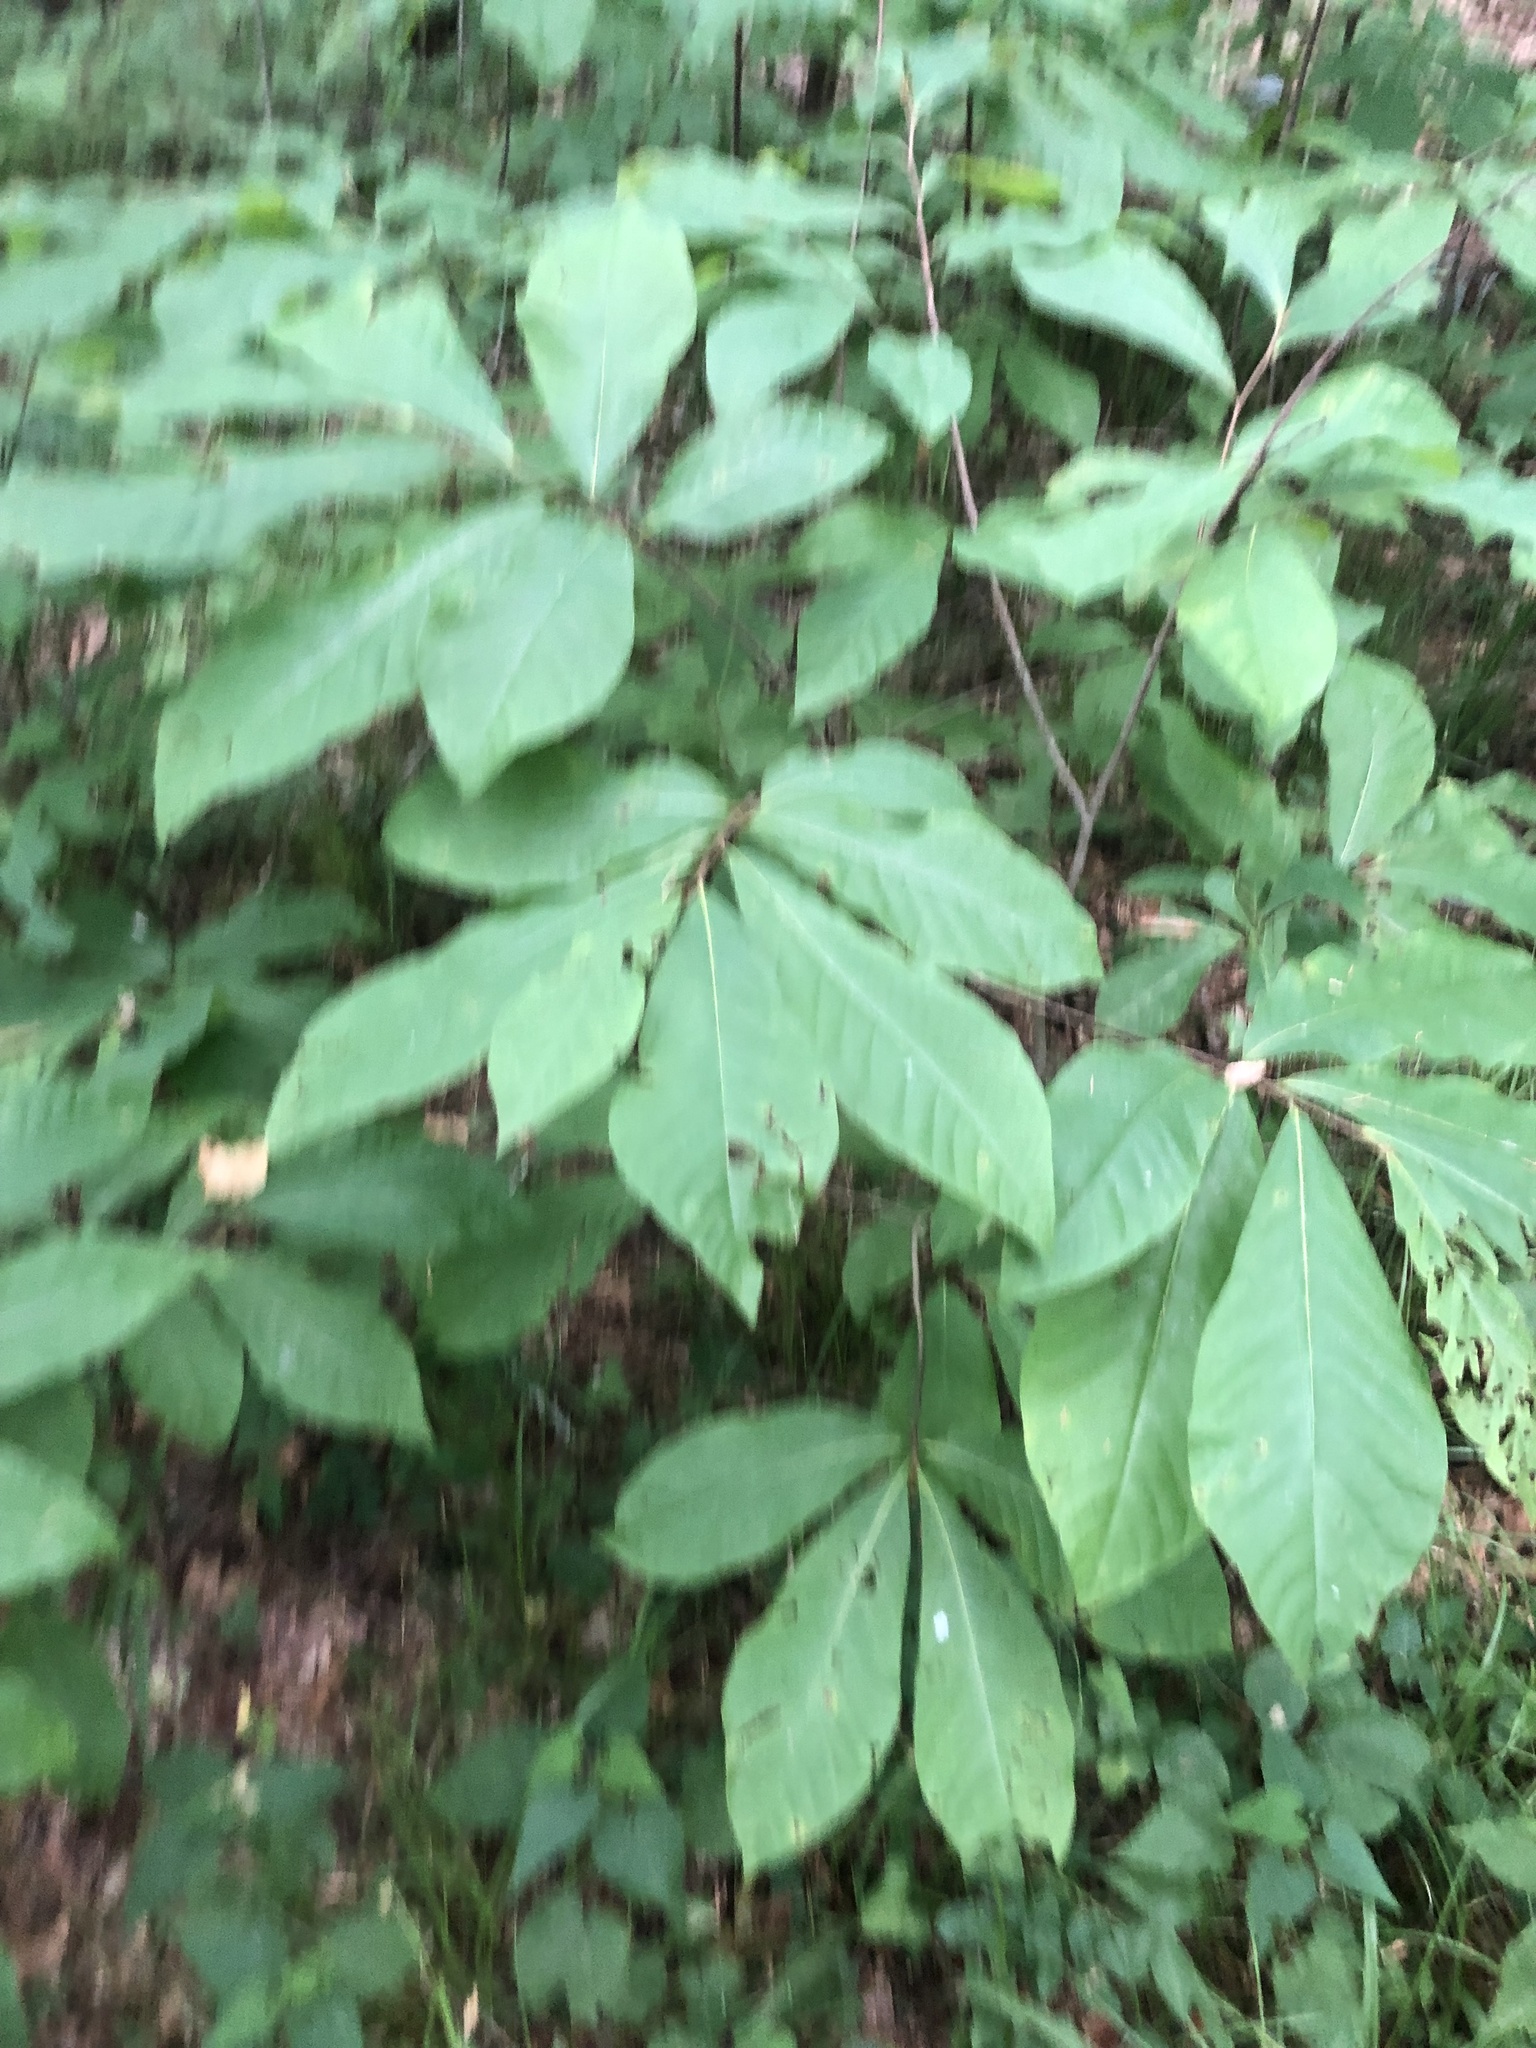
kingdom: Plantae
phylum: Tracheophyta
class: Magnoliopsida
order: Magnoliales
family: Annonaceae
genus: Asimina
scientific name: Asimina triloba
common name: Dog-banana
